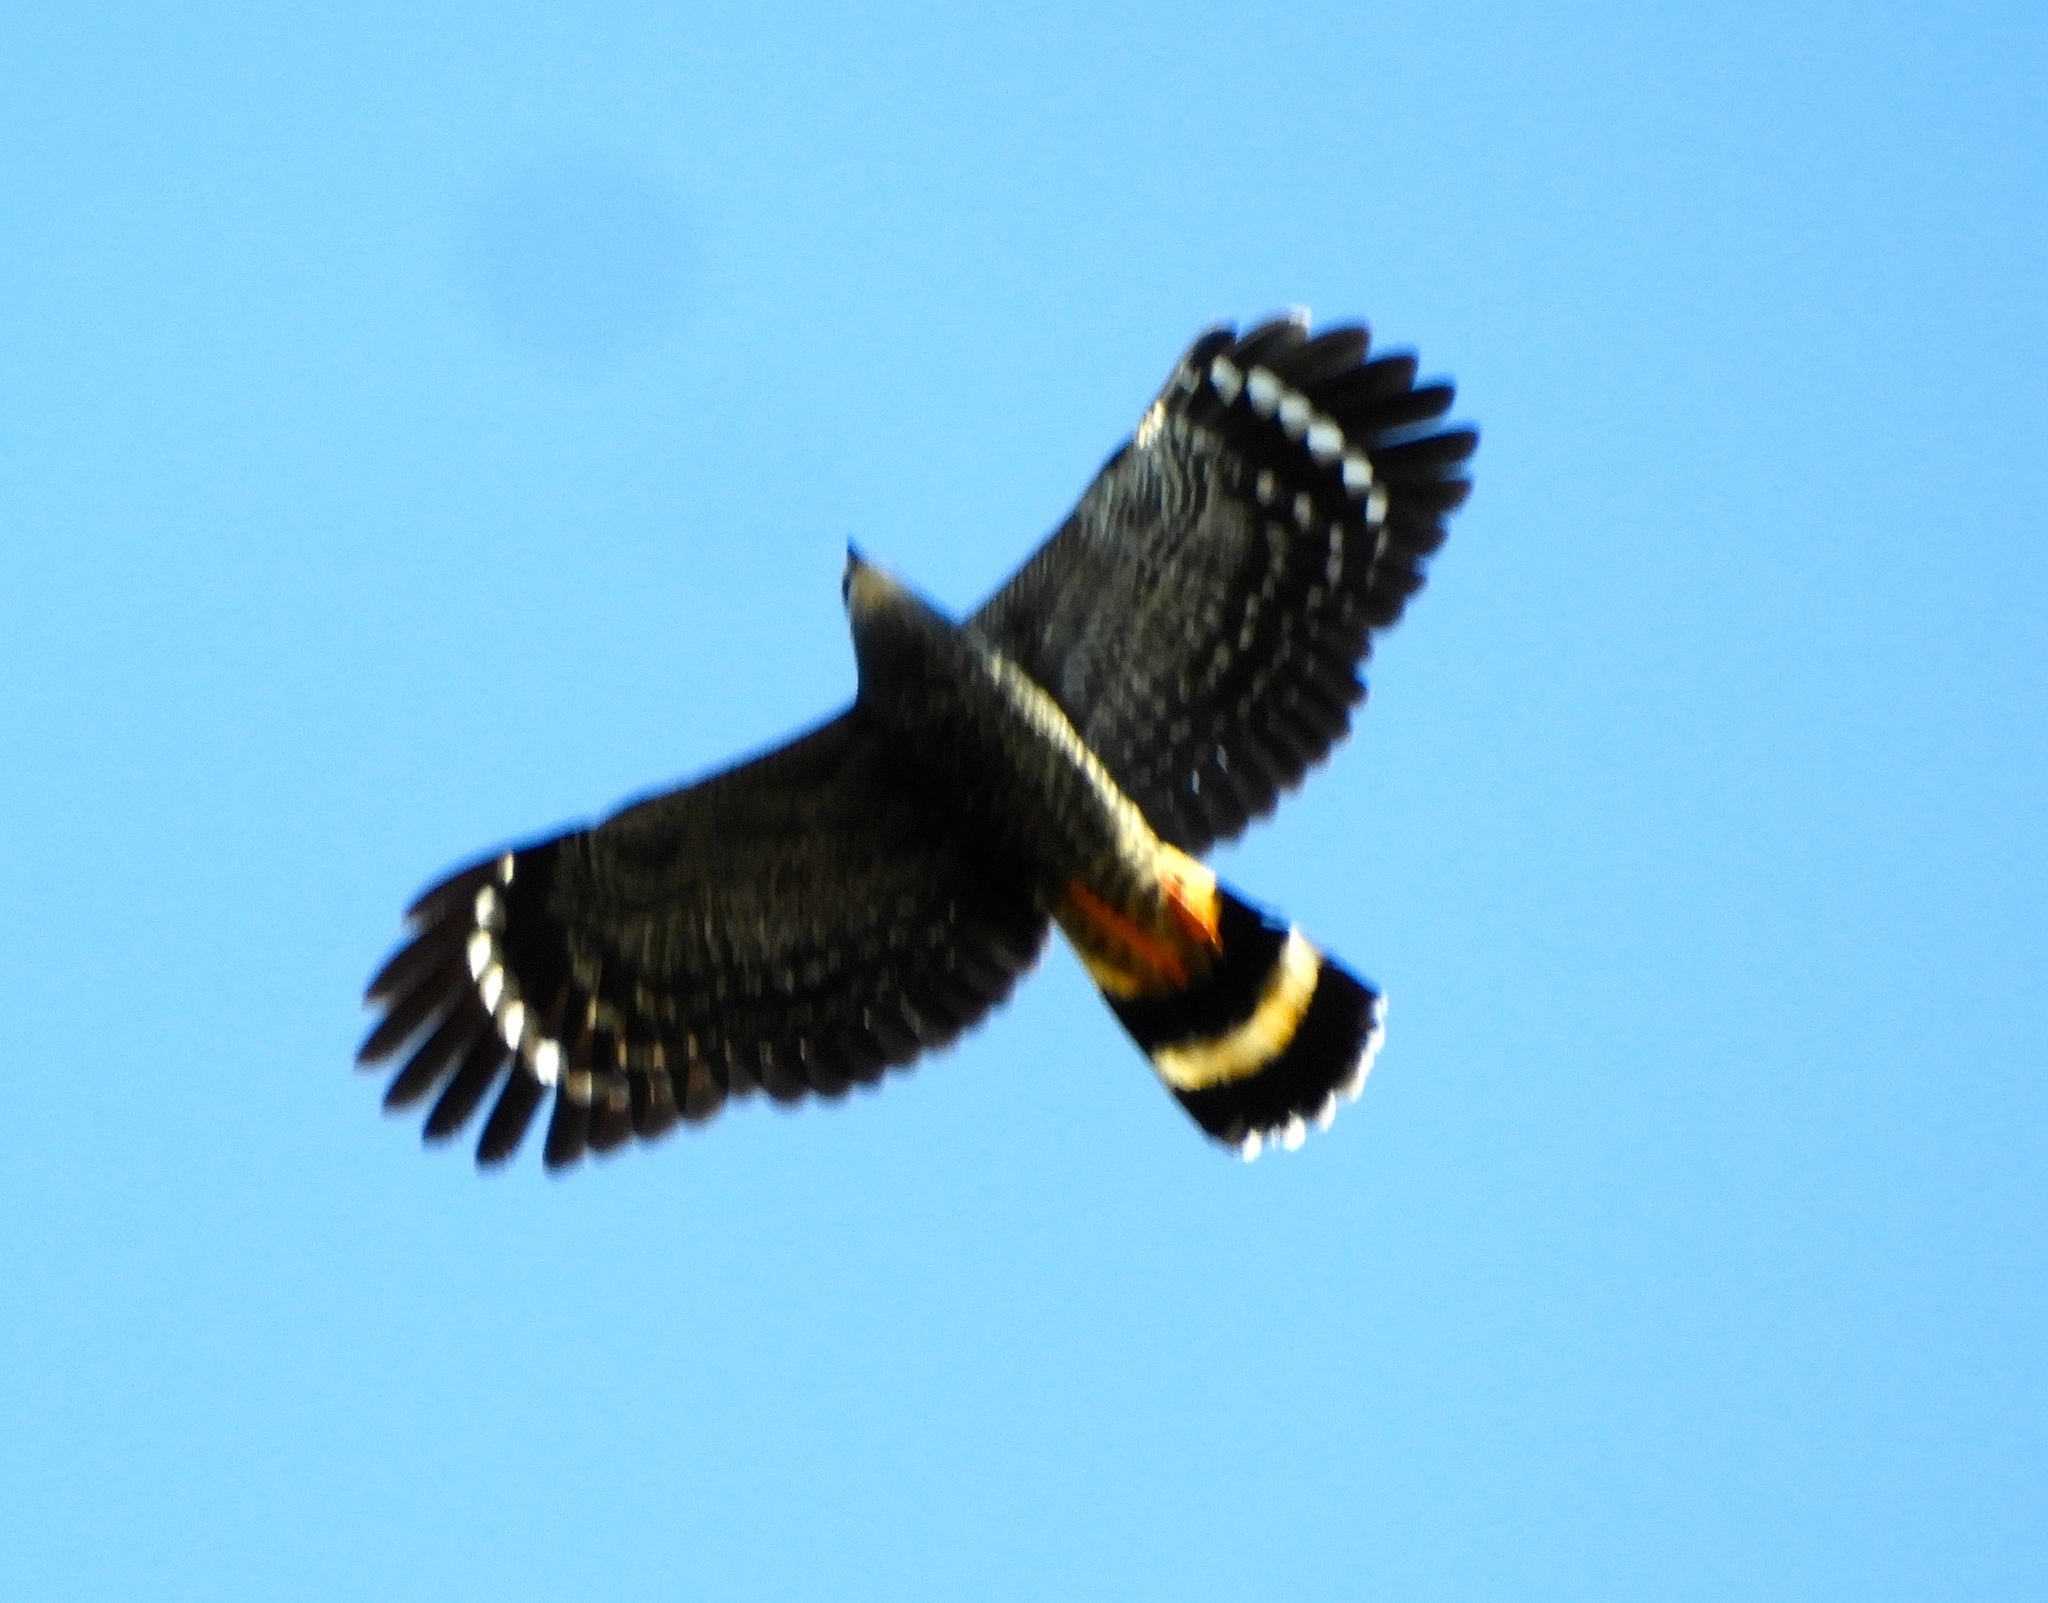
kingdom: Animalia
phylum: Chordata
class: Aves
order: Accipitriformes
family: Accipitridae
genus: Geranospiza
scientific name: Geranospiza caerulescens
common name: Crane hawk
